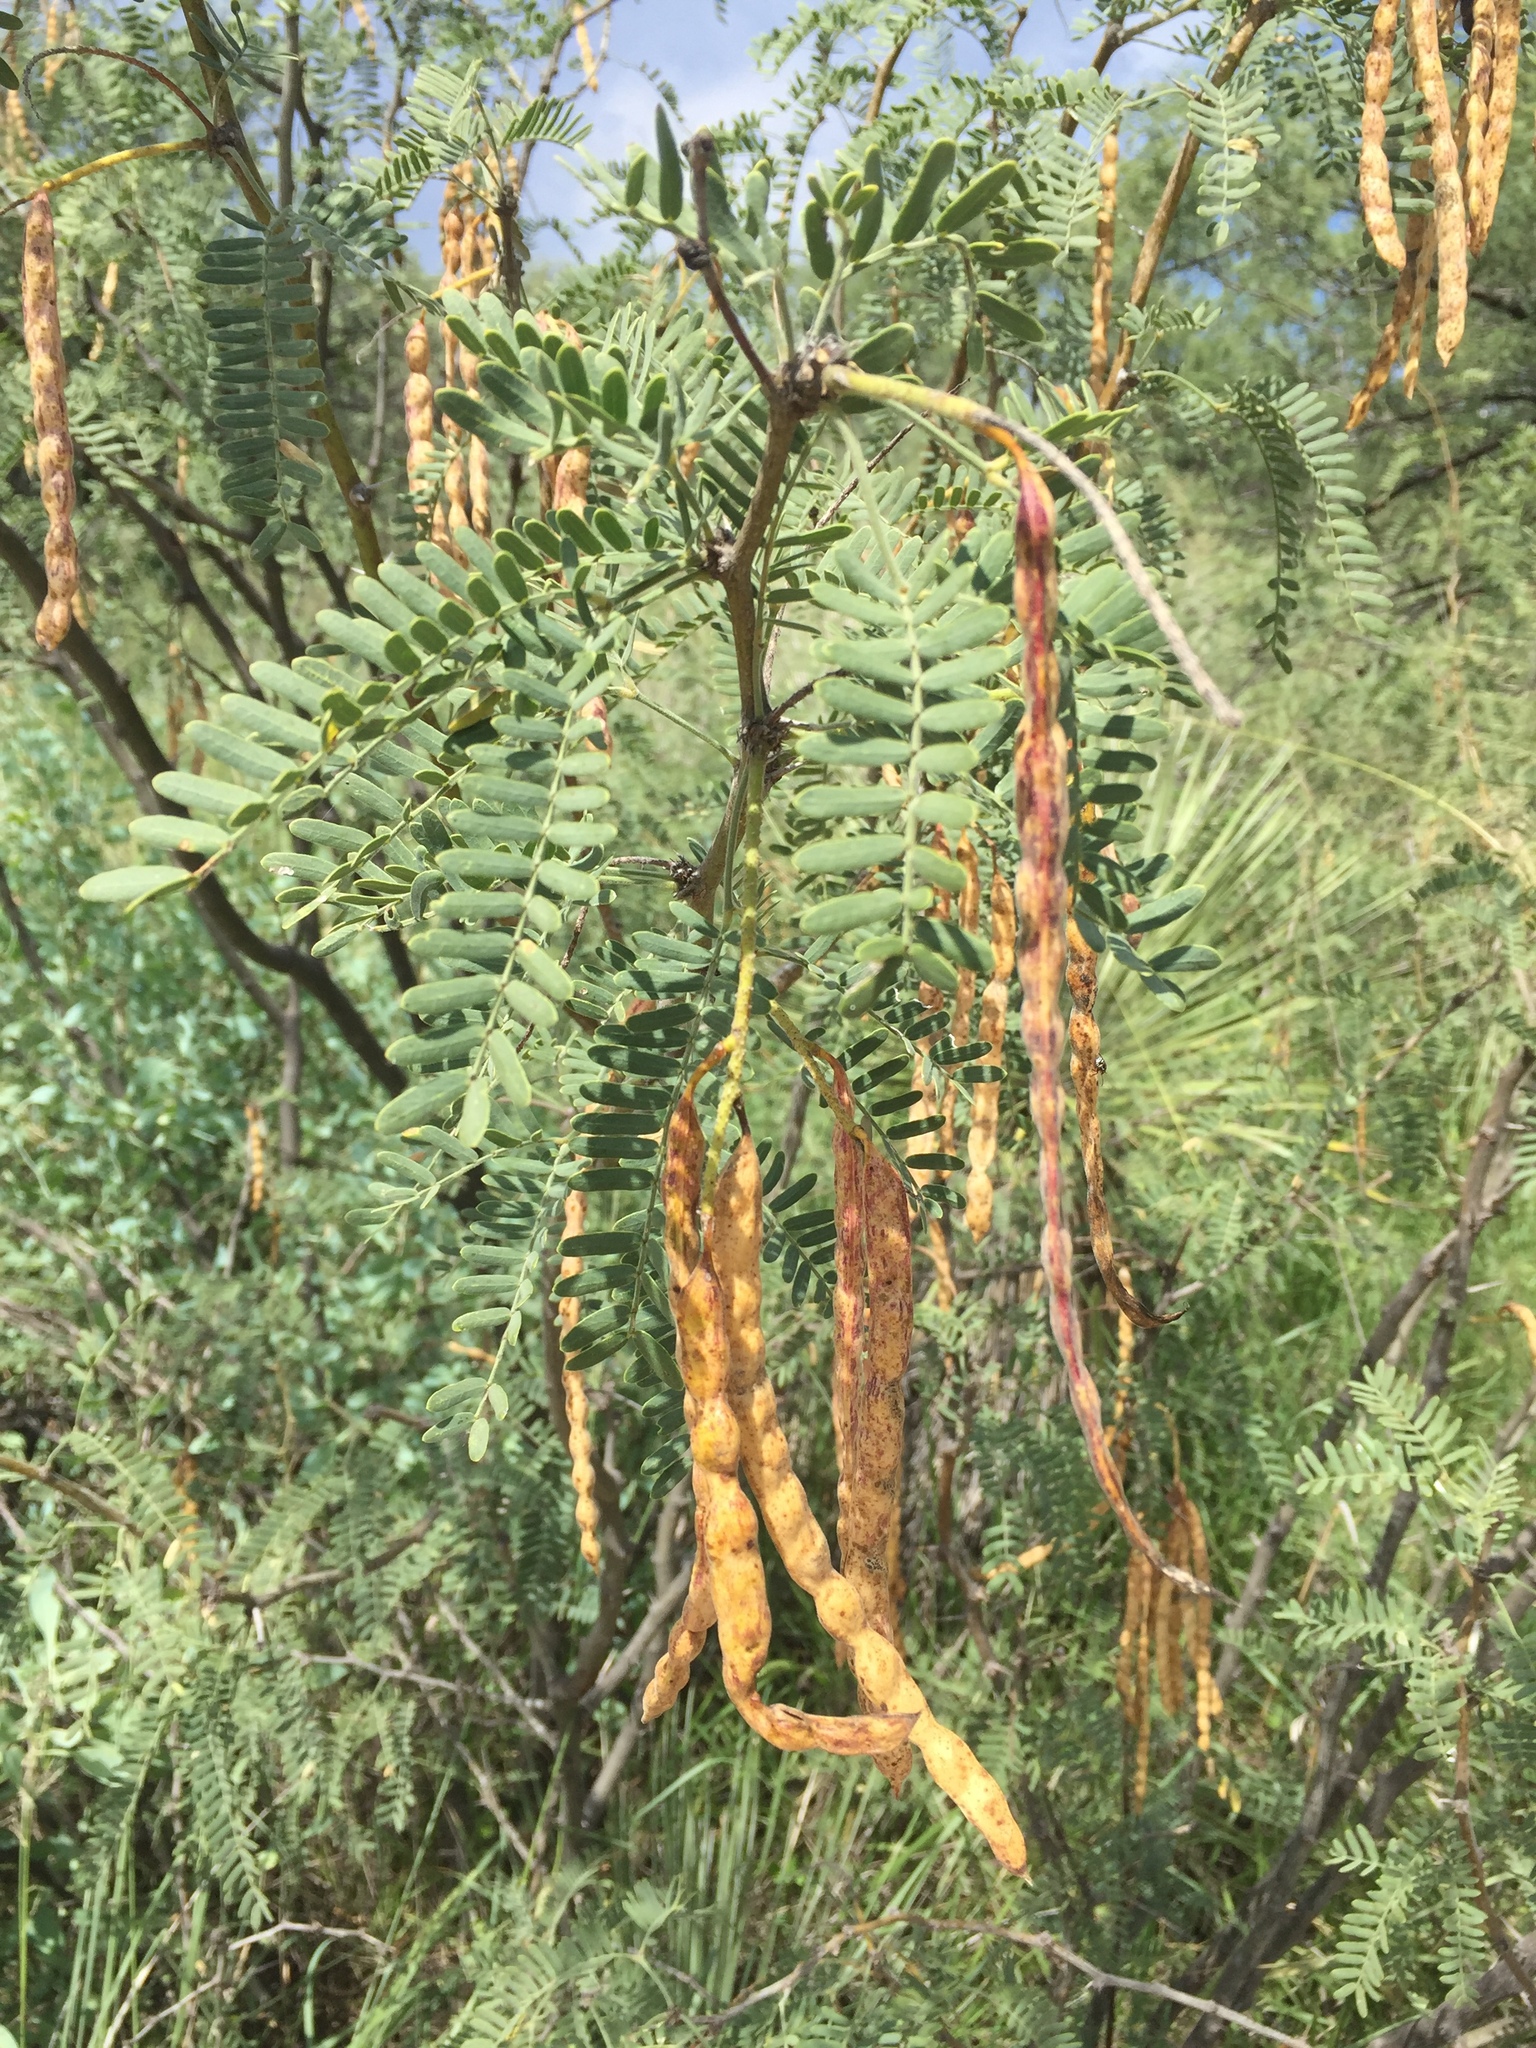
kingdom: Plantae
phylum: Tracheophyta
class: Magnoliopsida
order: Fabales
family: Fabaceae
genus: Prosopis
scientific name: Prosopis glandulosa
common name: Honey mesquite
